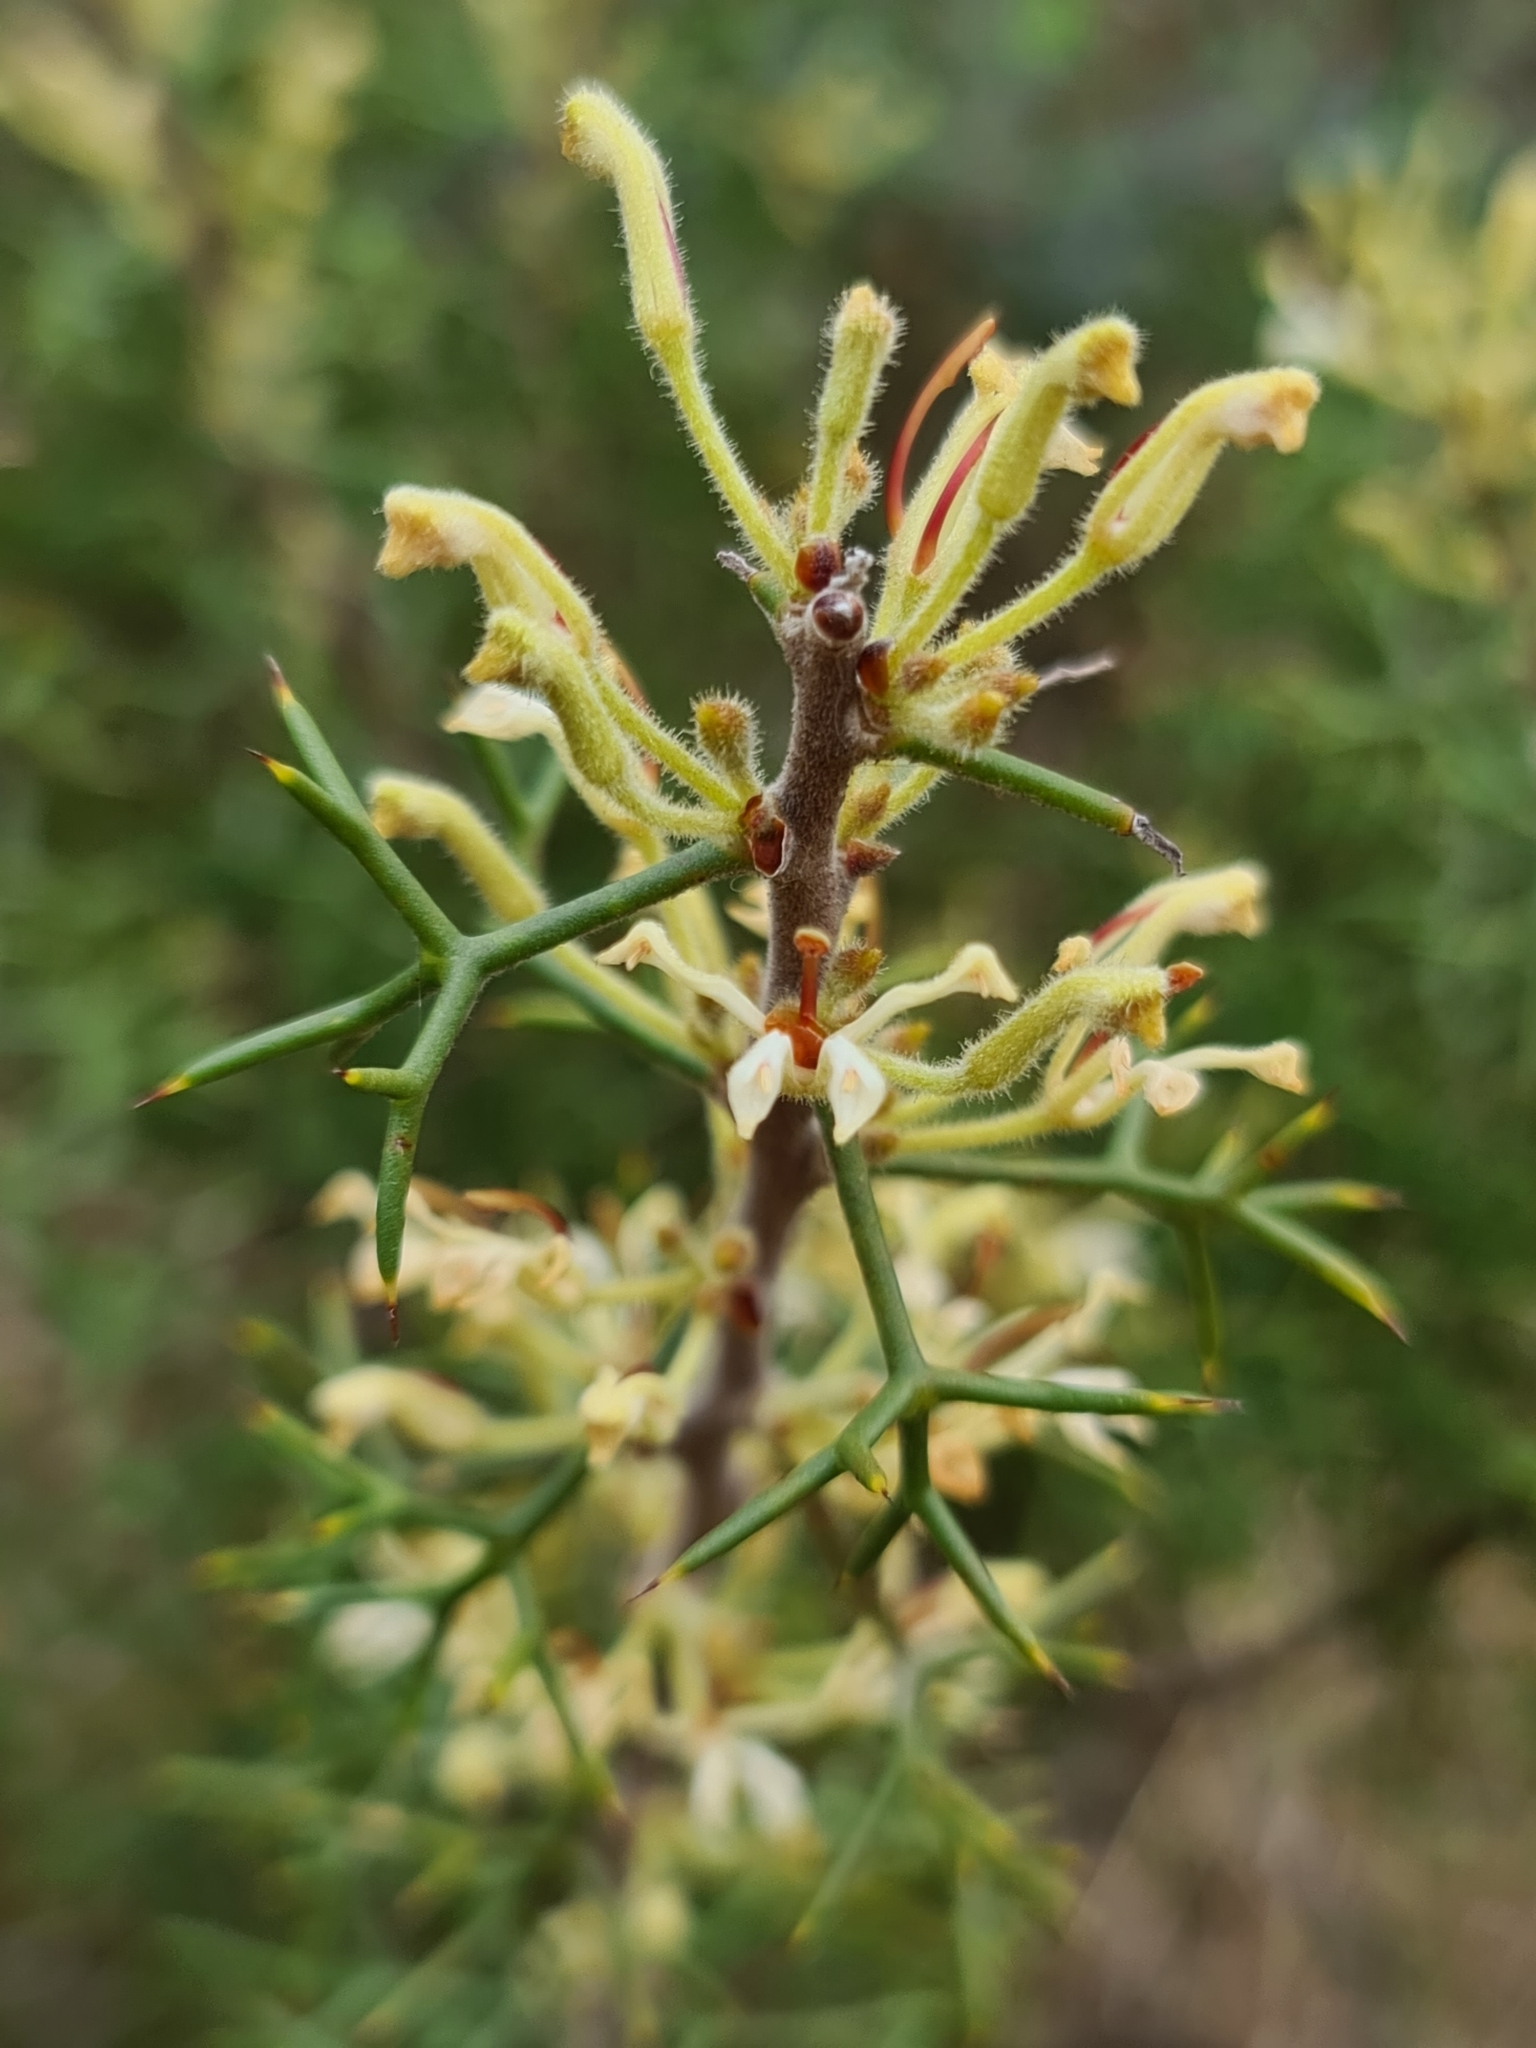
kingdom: Plantae
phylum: Tracheophyta
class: Magnoliopsida
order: Proteales
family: Proteaceae
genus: Hakea
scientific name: Hakea erinacea
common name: Hedgehog hakea
